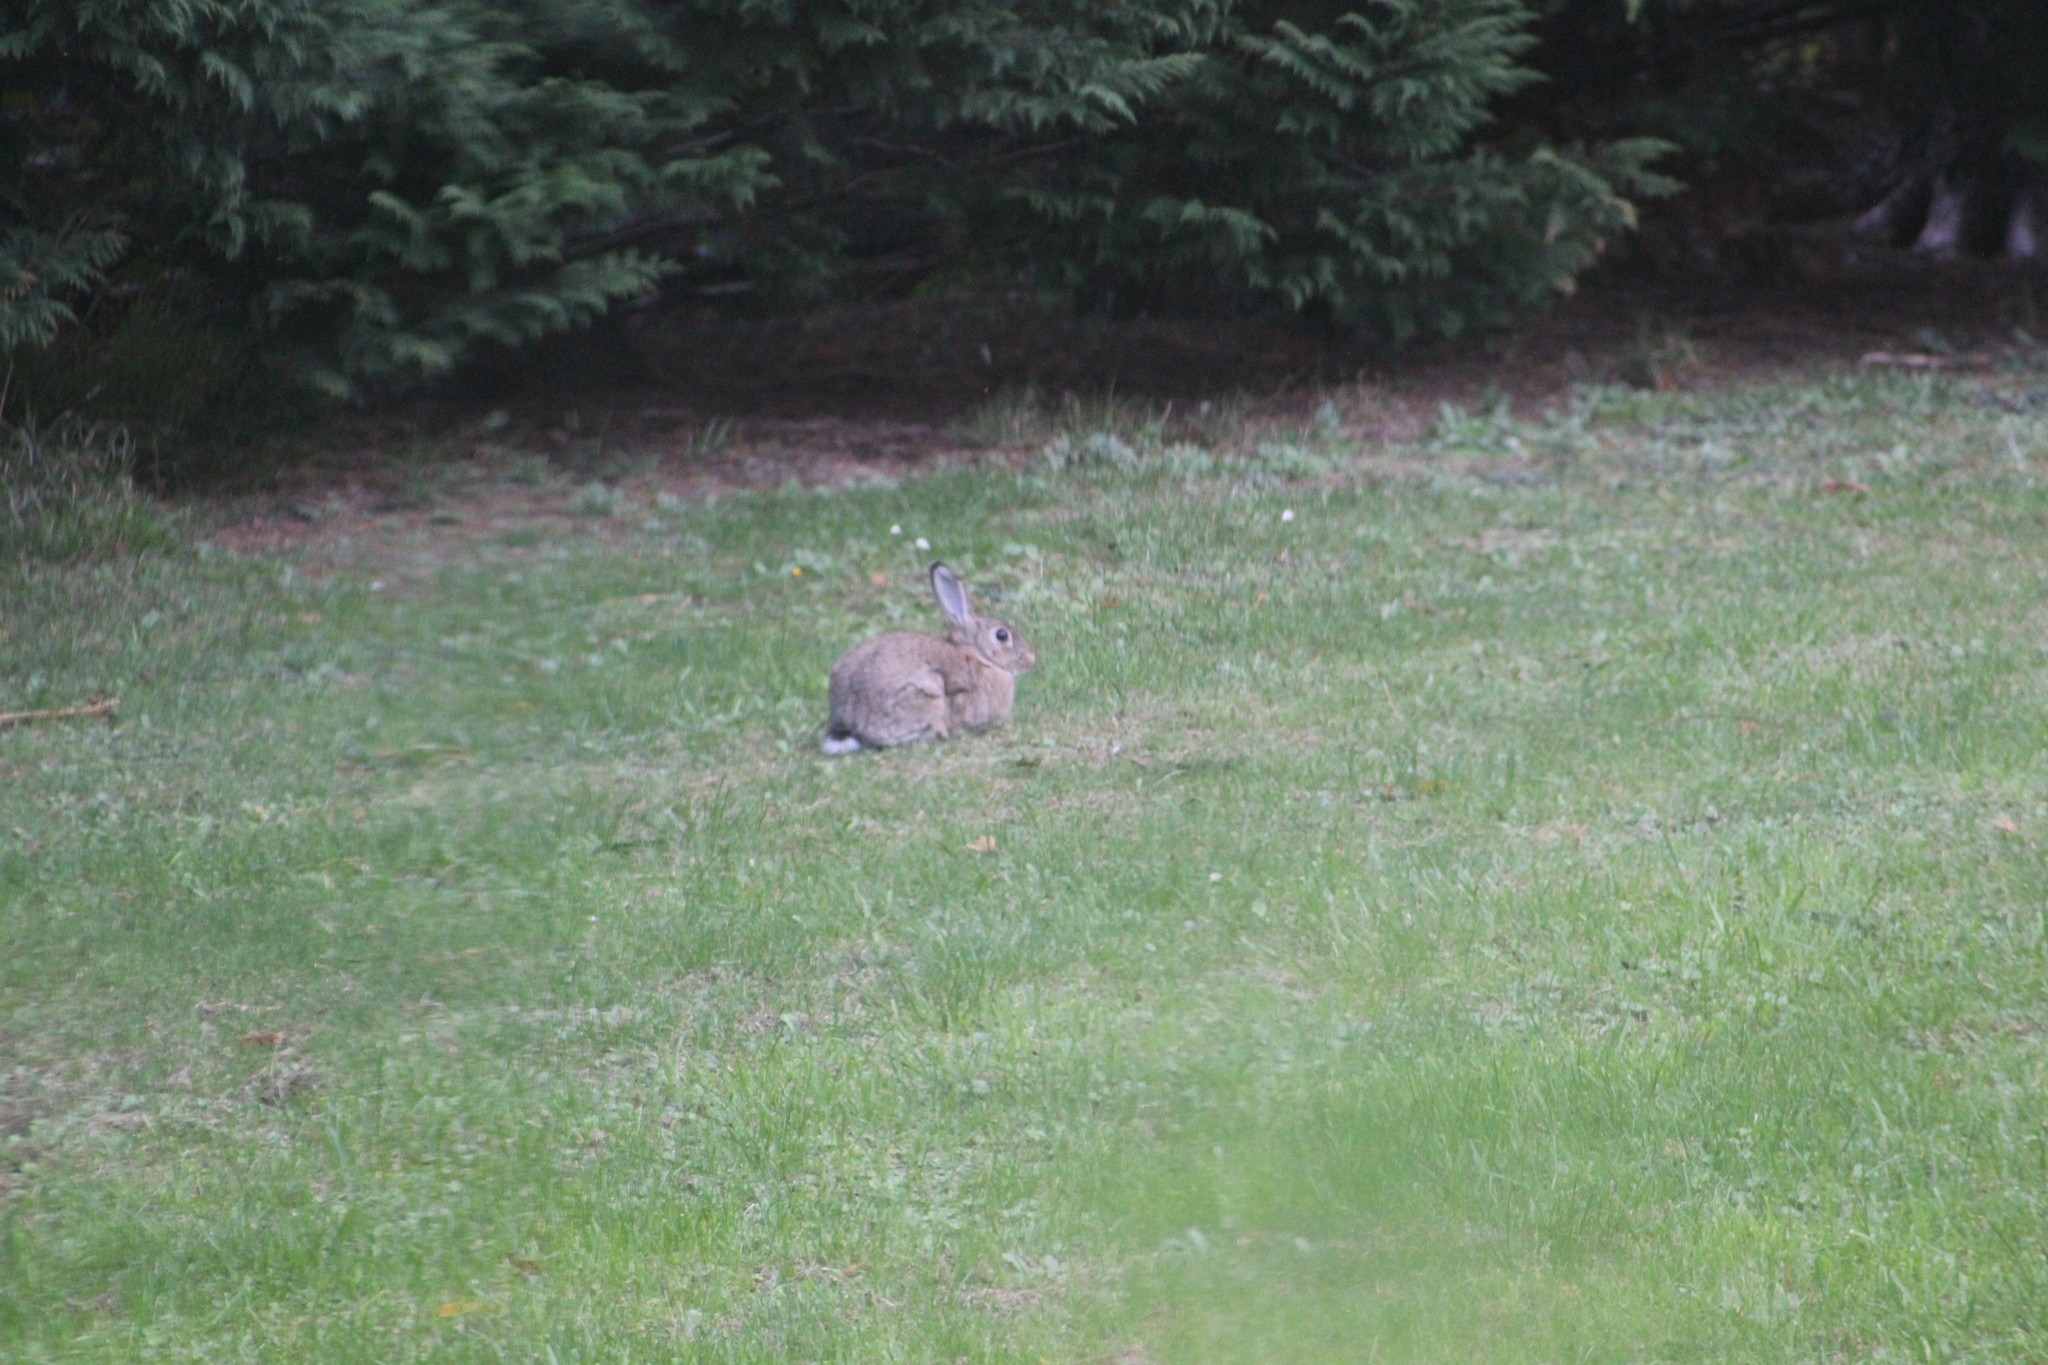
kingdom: Animalia
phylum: Chordata
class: Mammalia
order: Lagomorpha
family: Leporidae
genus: Oryctolagus
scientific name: Oryctolagus cuniculus
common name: European rabbit
